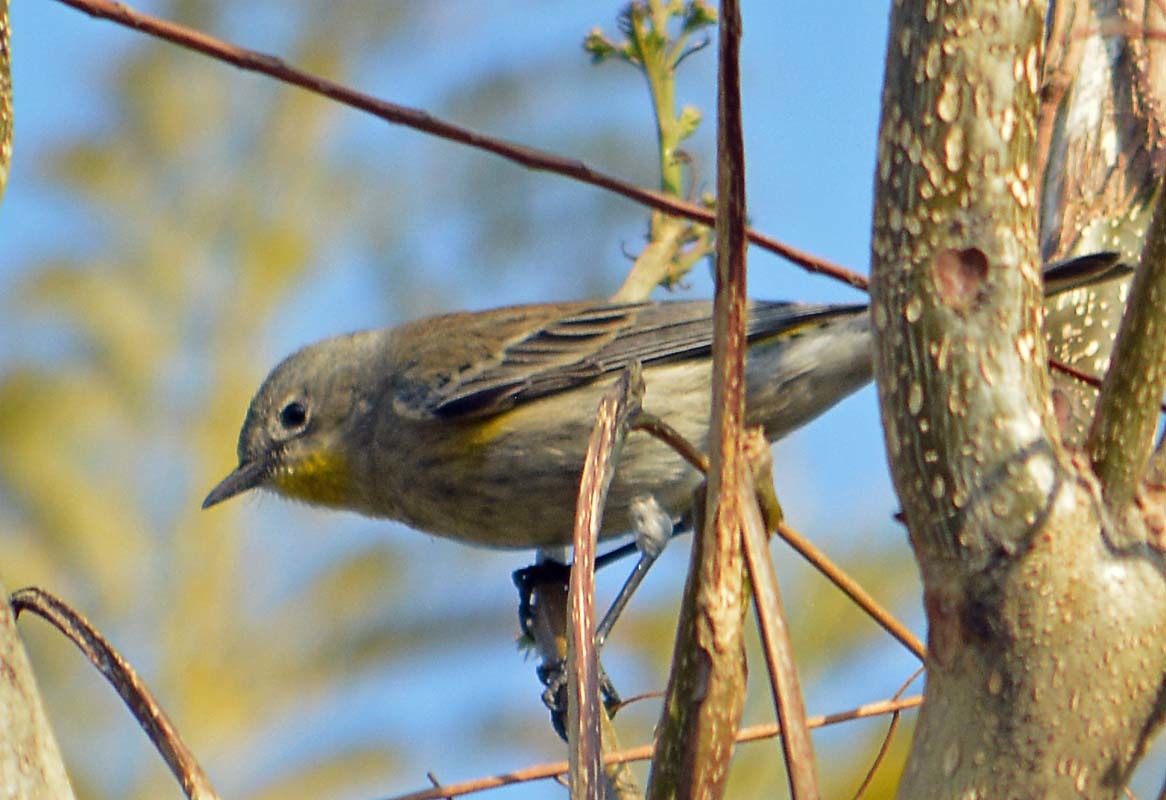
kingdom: Animalia
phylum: Chordata
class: Aves
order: Passeriformes
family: Parulidae
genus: Setophaga
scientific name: Setophaga coronata
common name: Myrtle warbler
